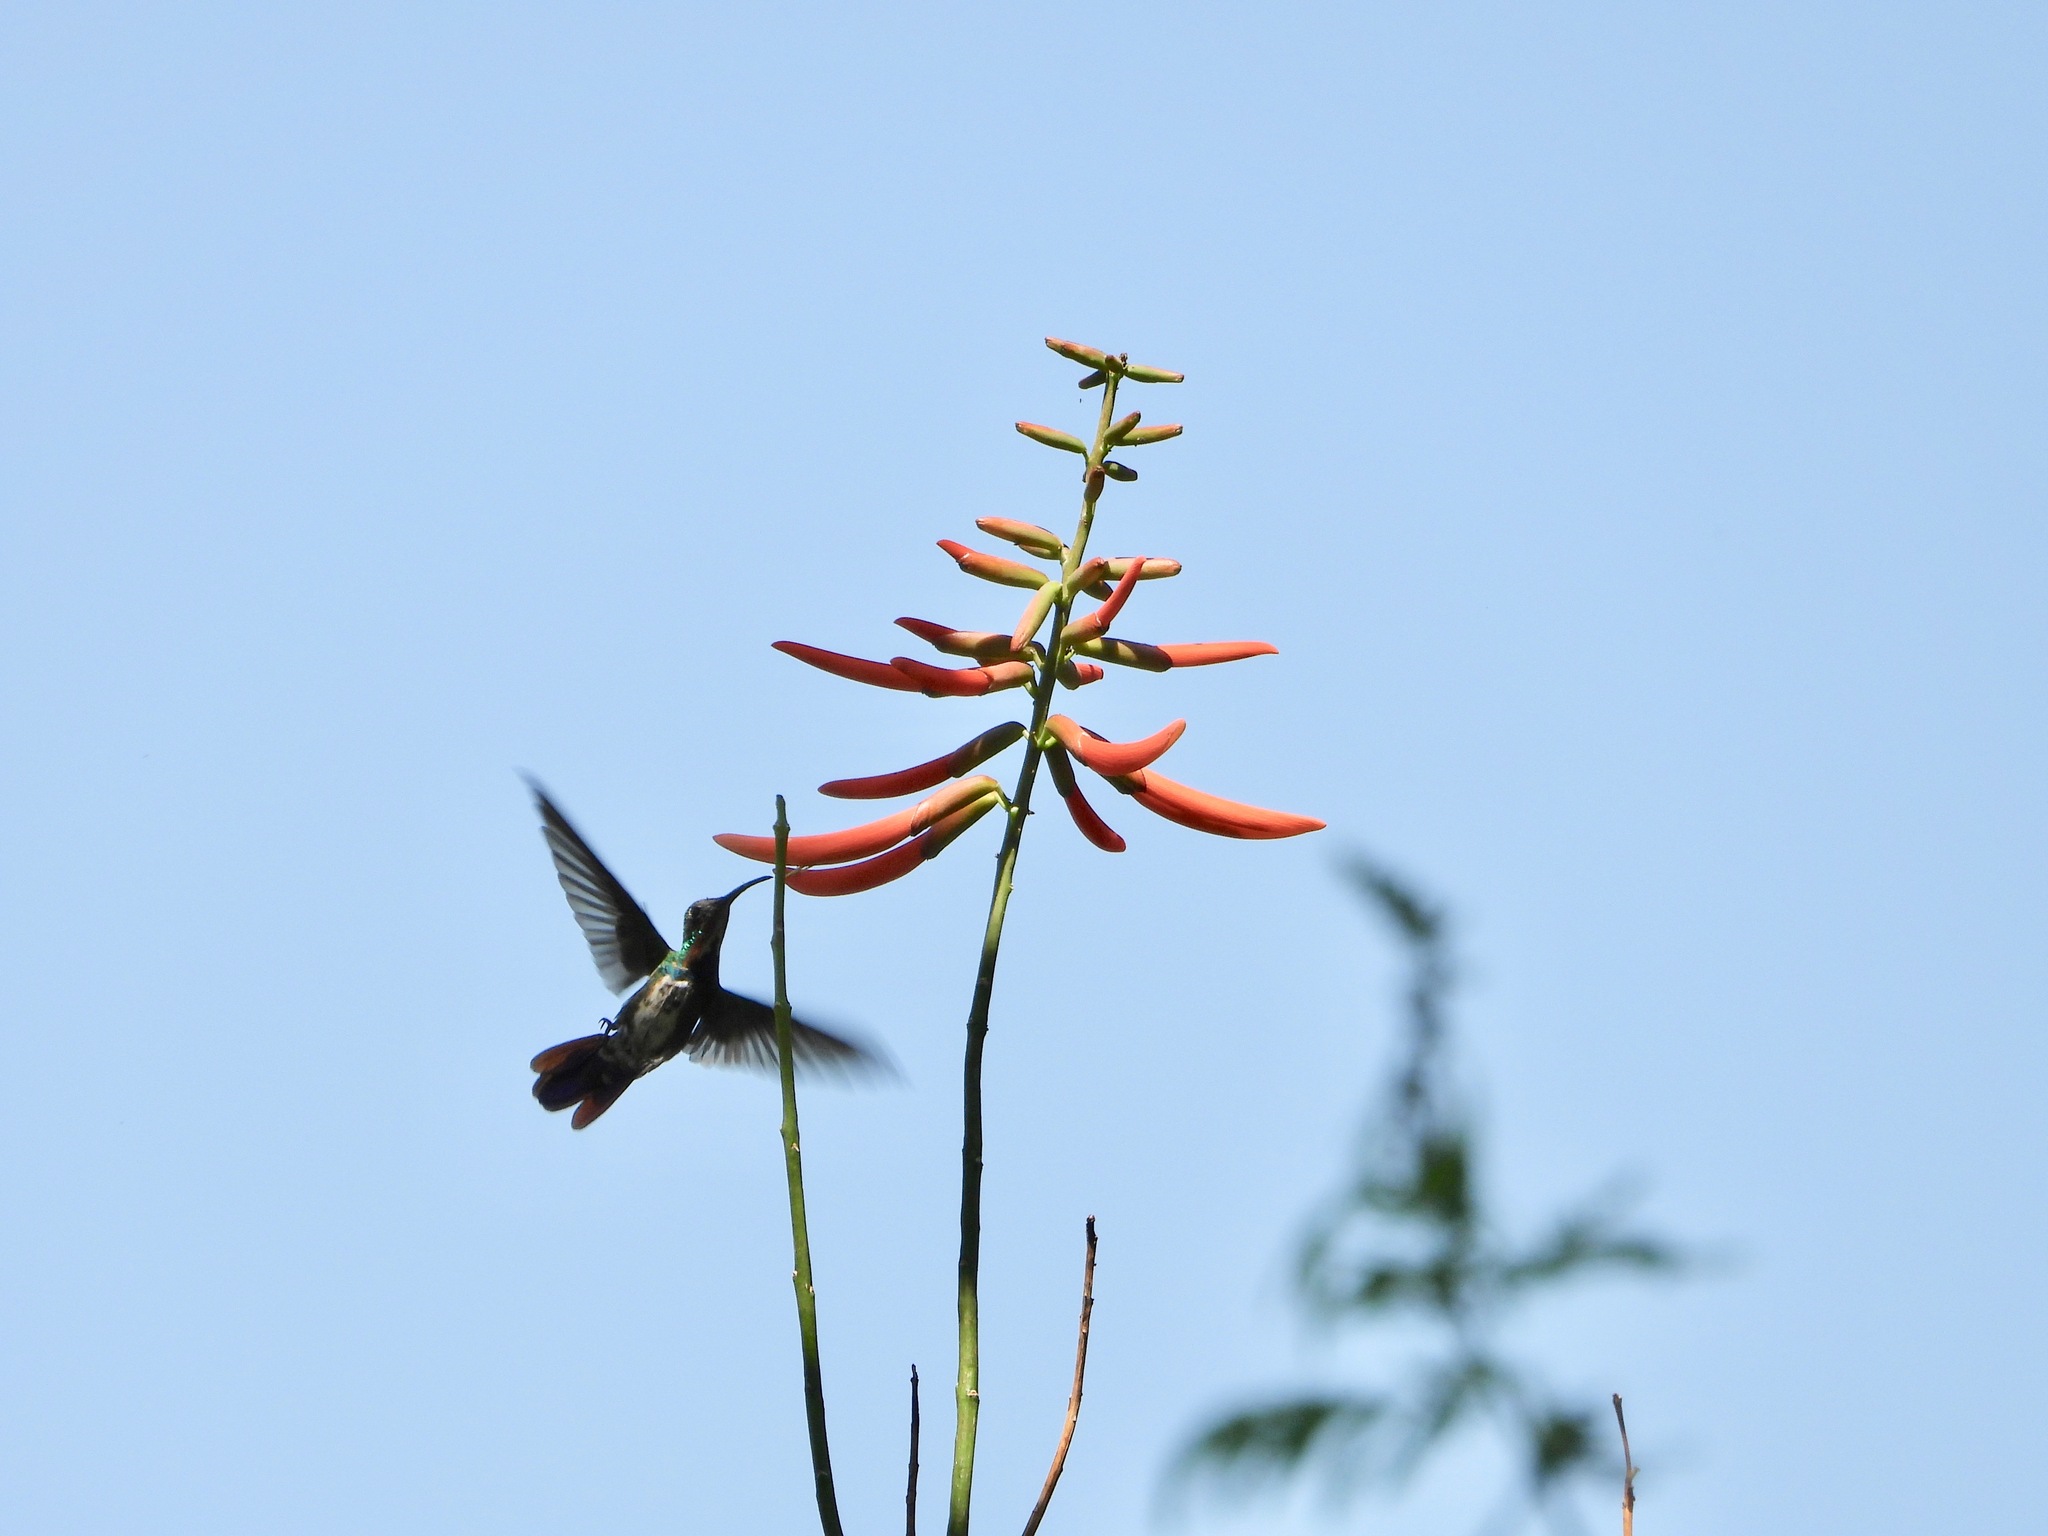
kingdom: Animalia
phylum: Chordata
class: Aves
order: Apodiformes
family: Trochilidae
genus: Anthracothorax
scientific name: Anthracothorax prevostii
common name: Green-breasted mango
